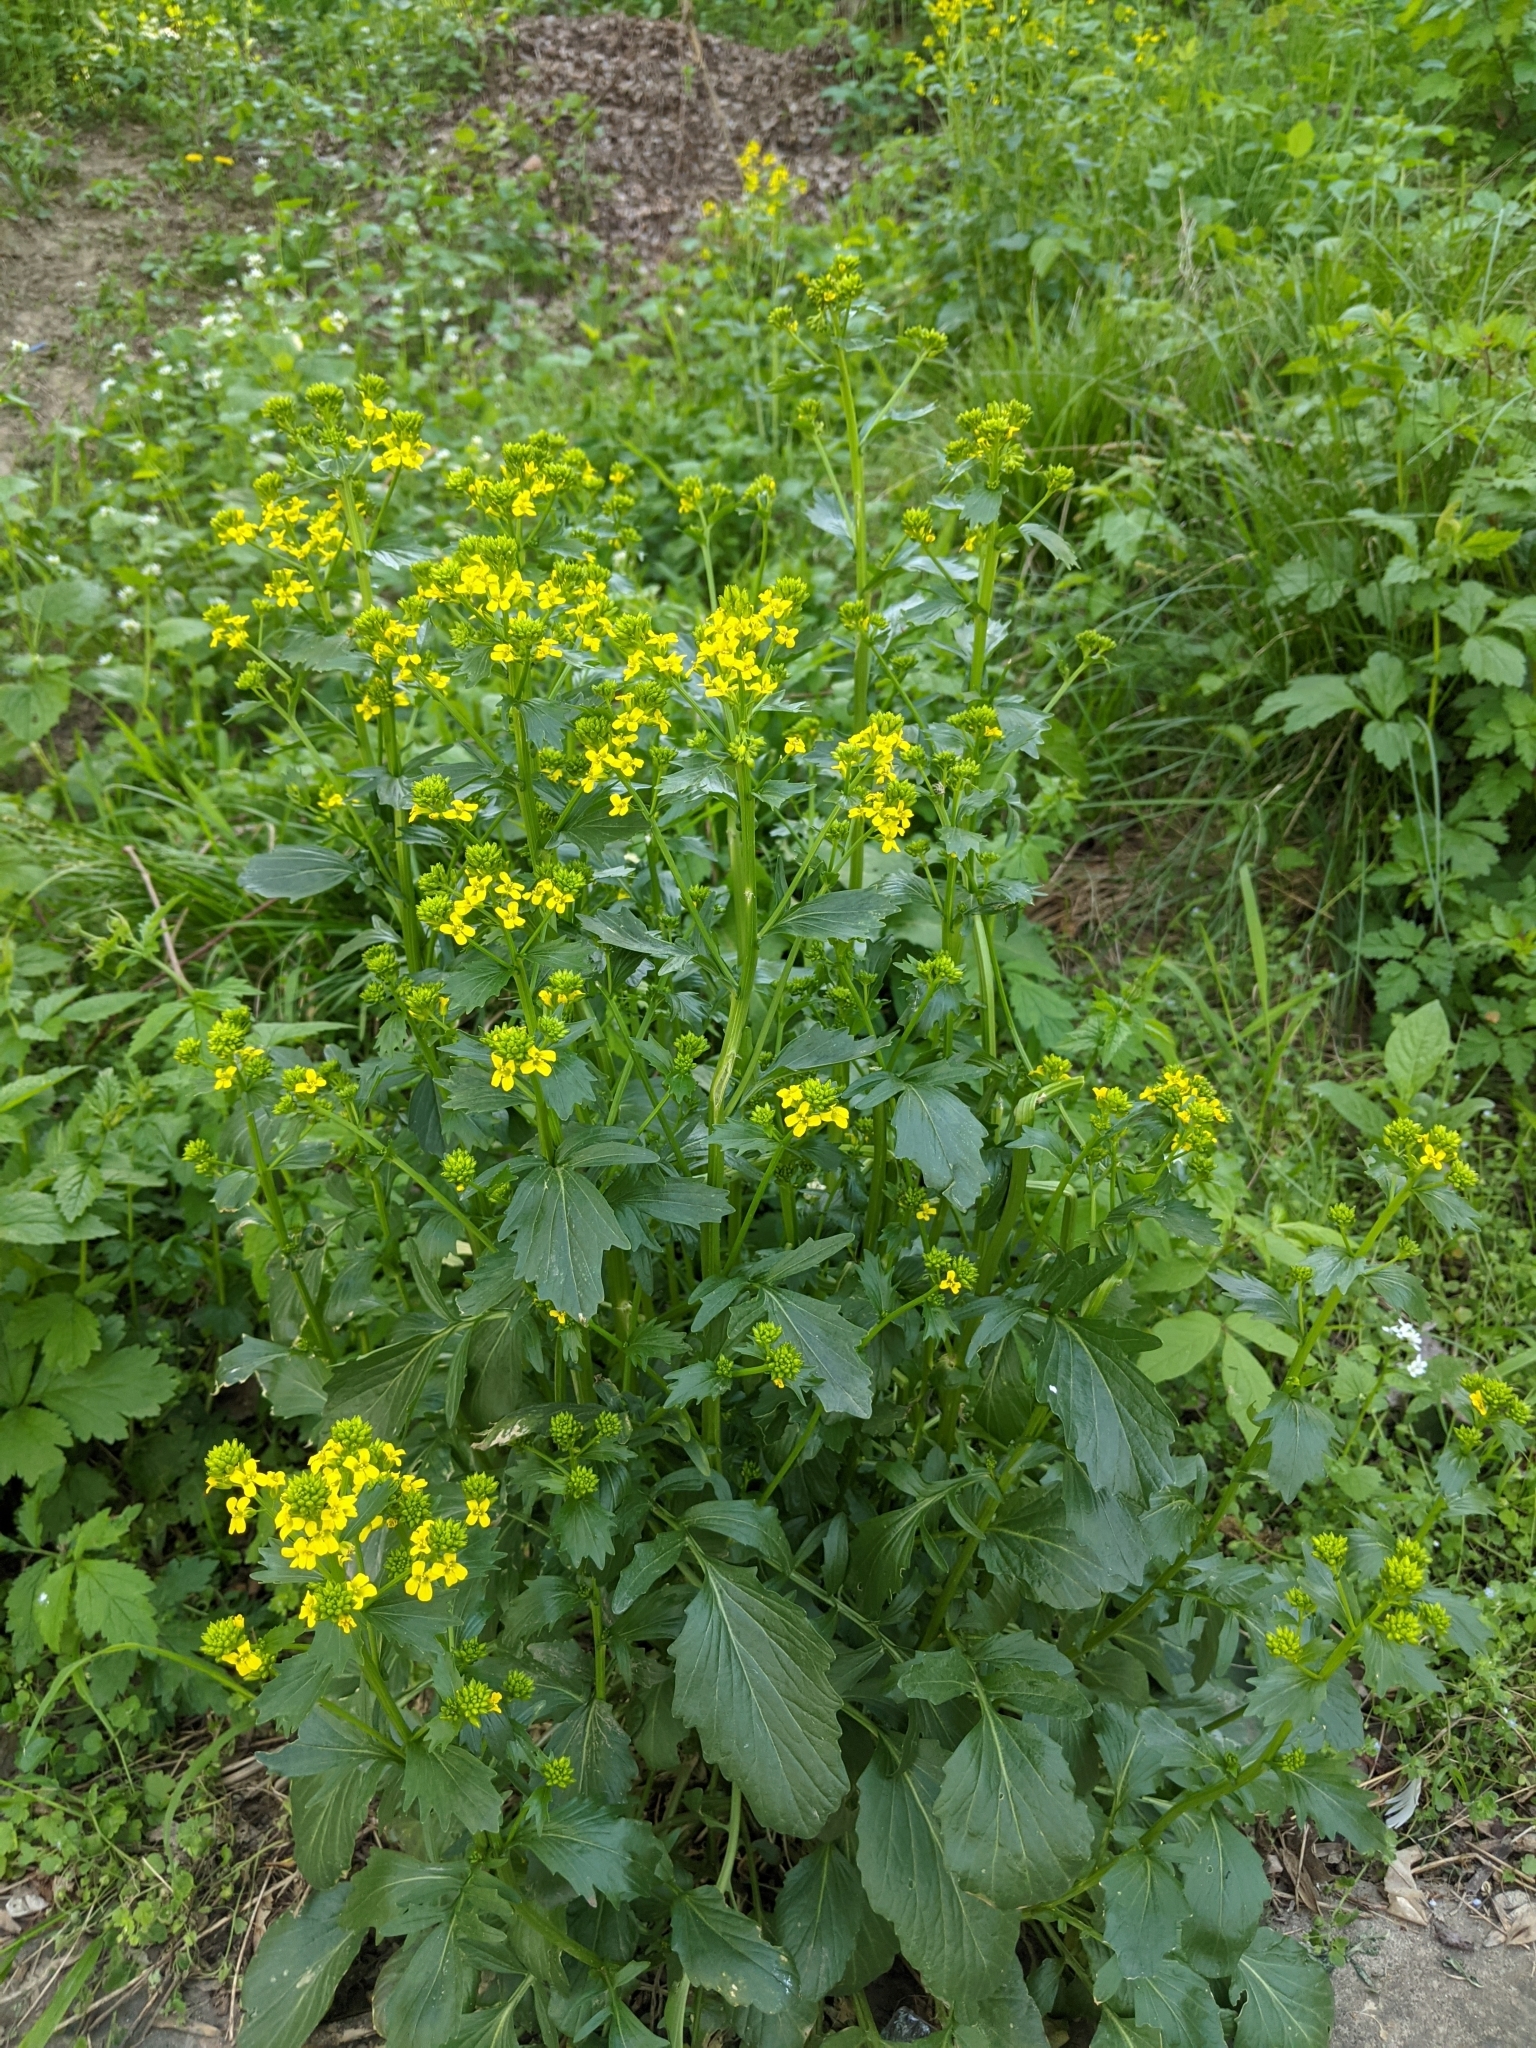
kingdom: Plantae
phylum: Tracheophyta
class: Magnoliopsida
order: Brassicales
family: Brassicaceae
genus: Barbarea
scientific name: Barbarea vulgaris
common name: Cressy-greens
